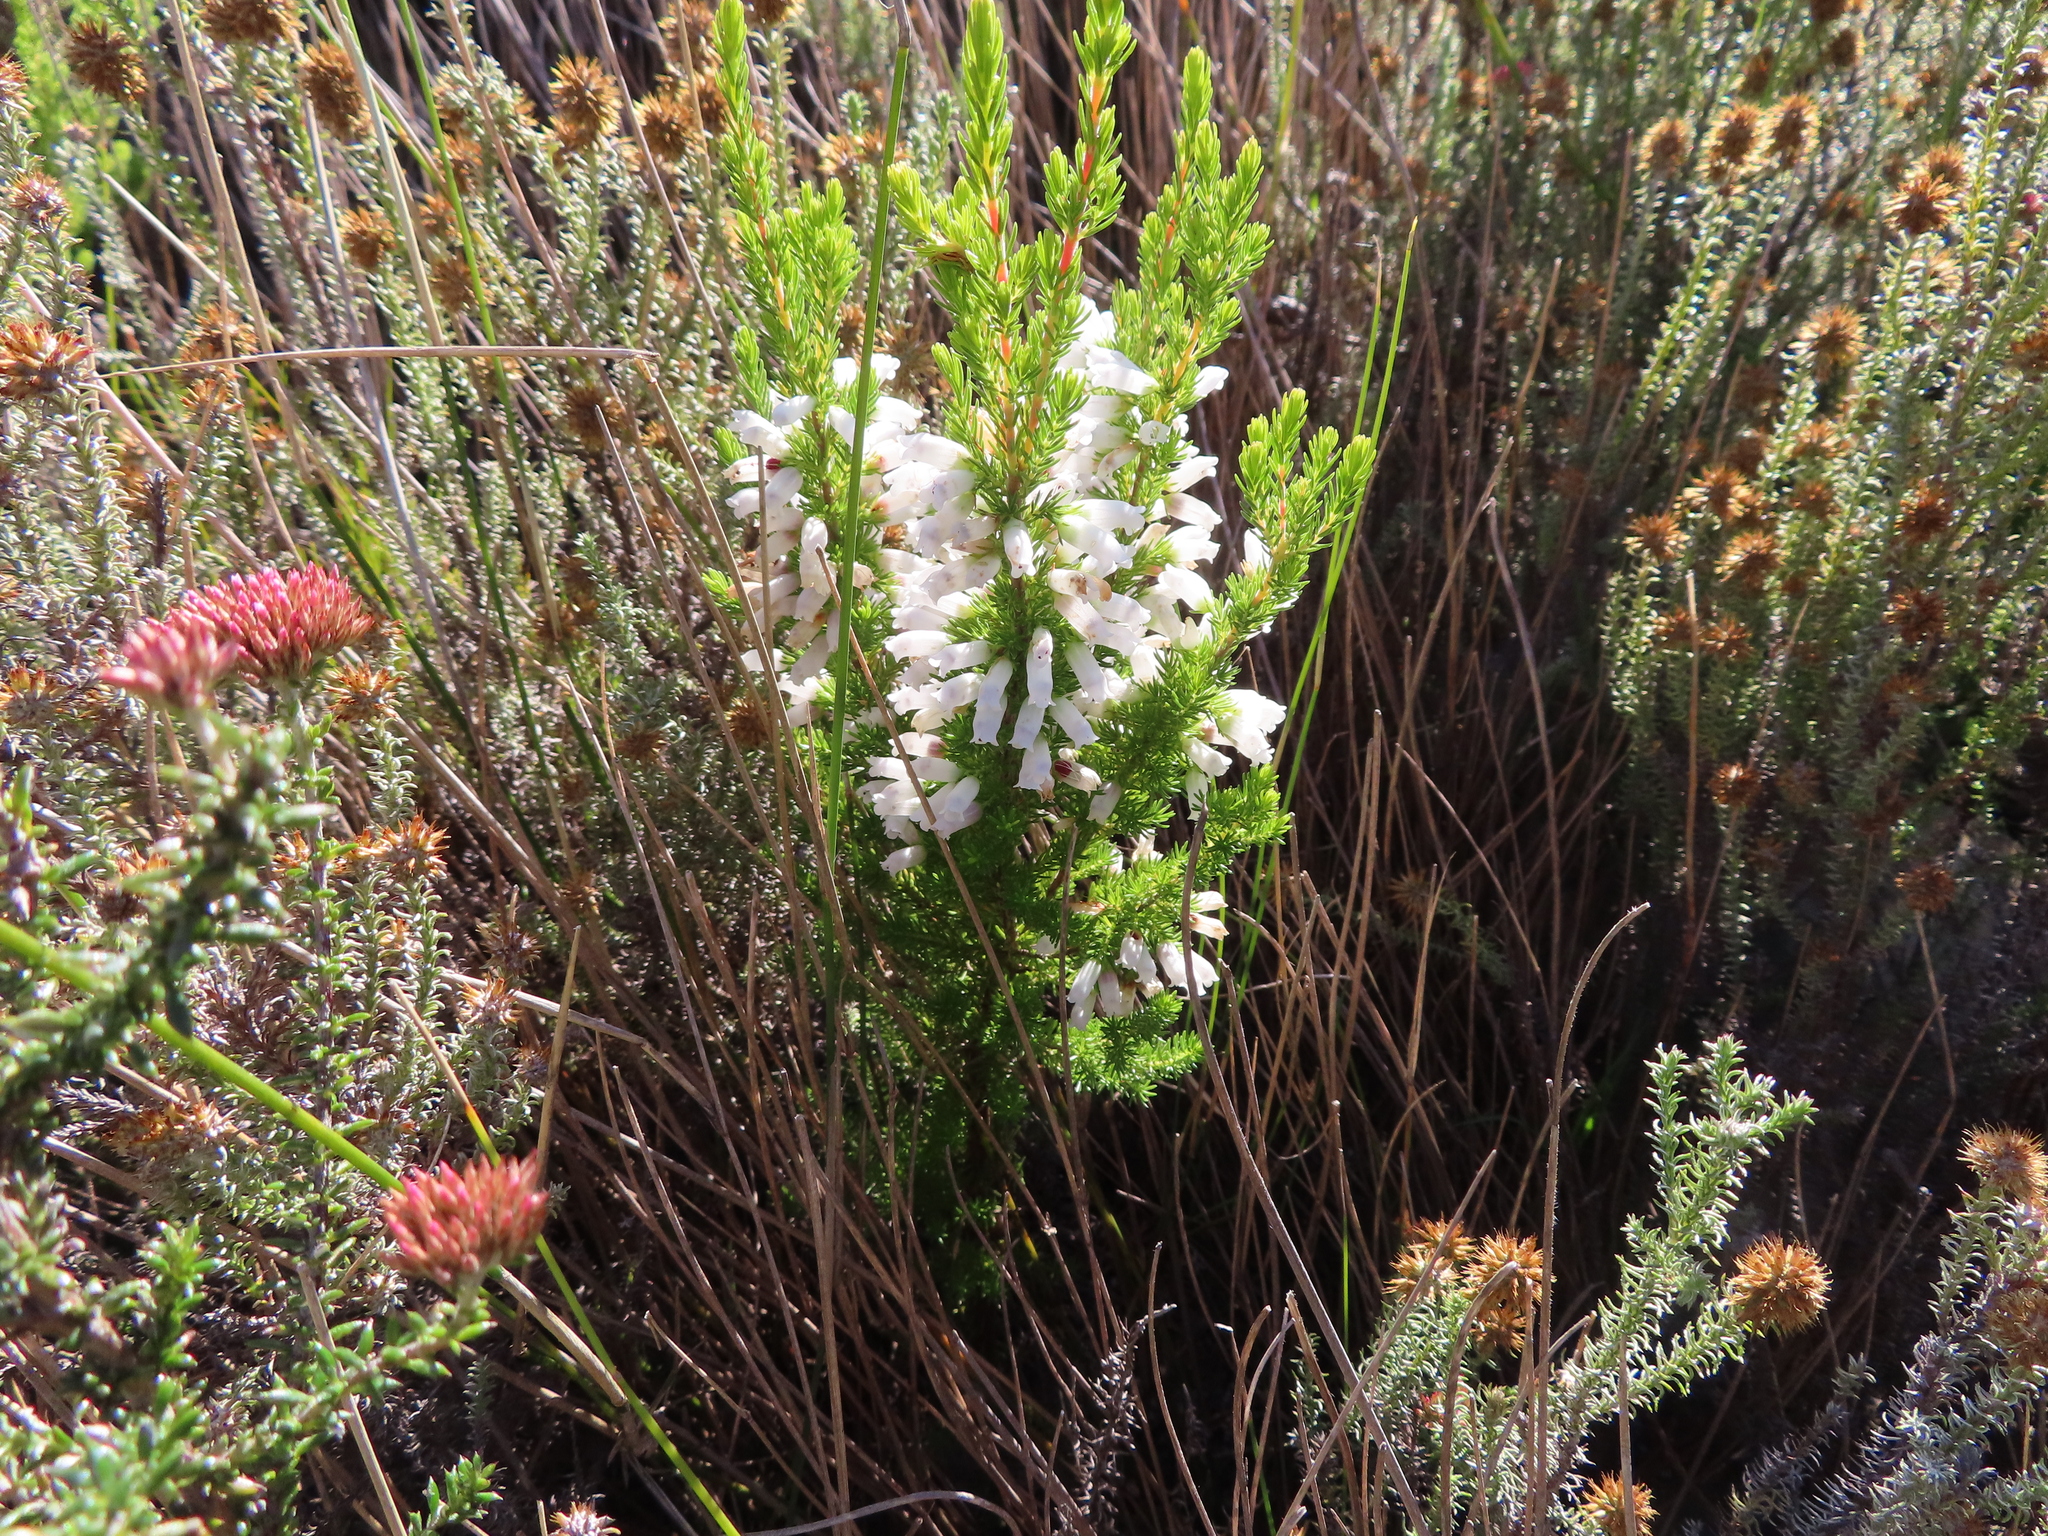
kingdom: Plantae
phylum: Tracheophyta
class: Magnoliopsida
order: Ericales
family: Ericaceae
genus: Erica
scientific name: Erica sitiens
